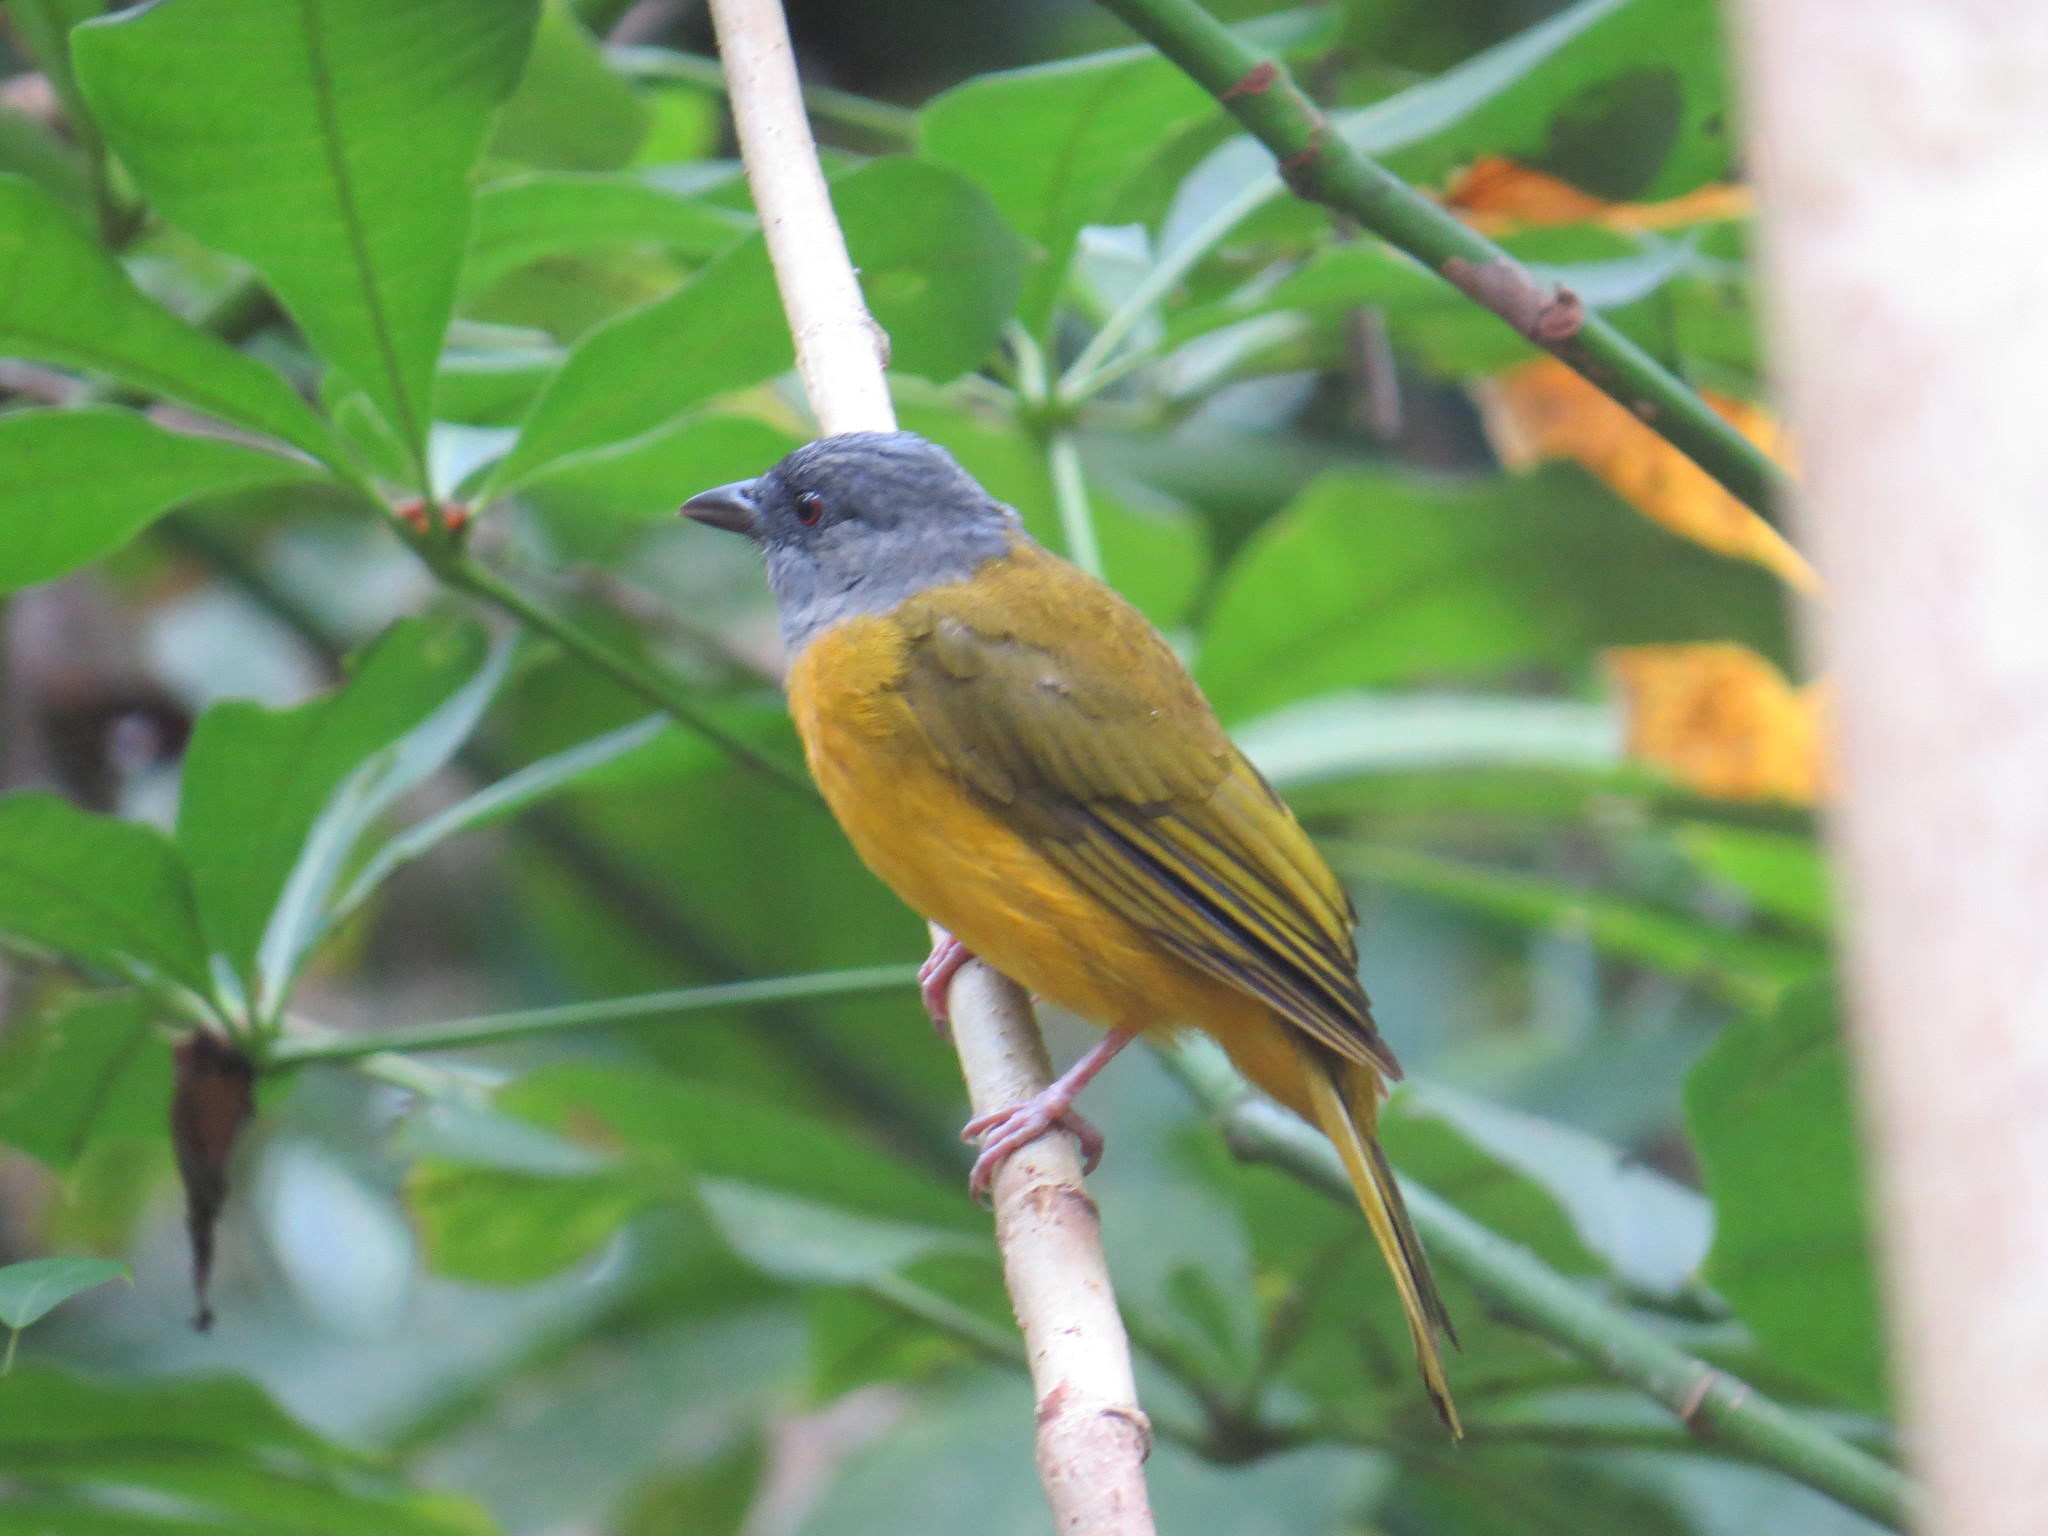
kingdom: Animalia
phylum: Chordata
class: Aves
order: Passeriformes
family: Thraupidae
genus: Eucometis
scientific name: Eucometis penicillata
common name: Grey-headed tanager
